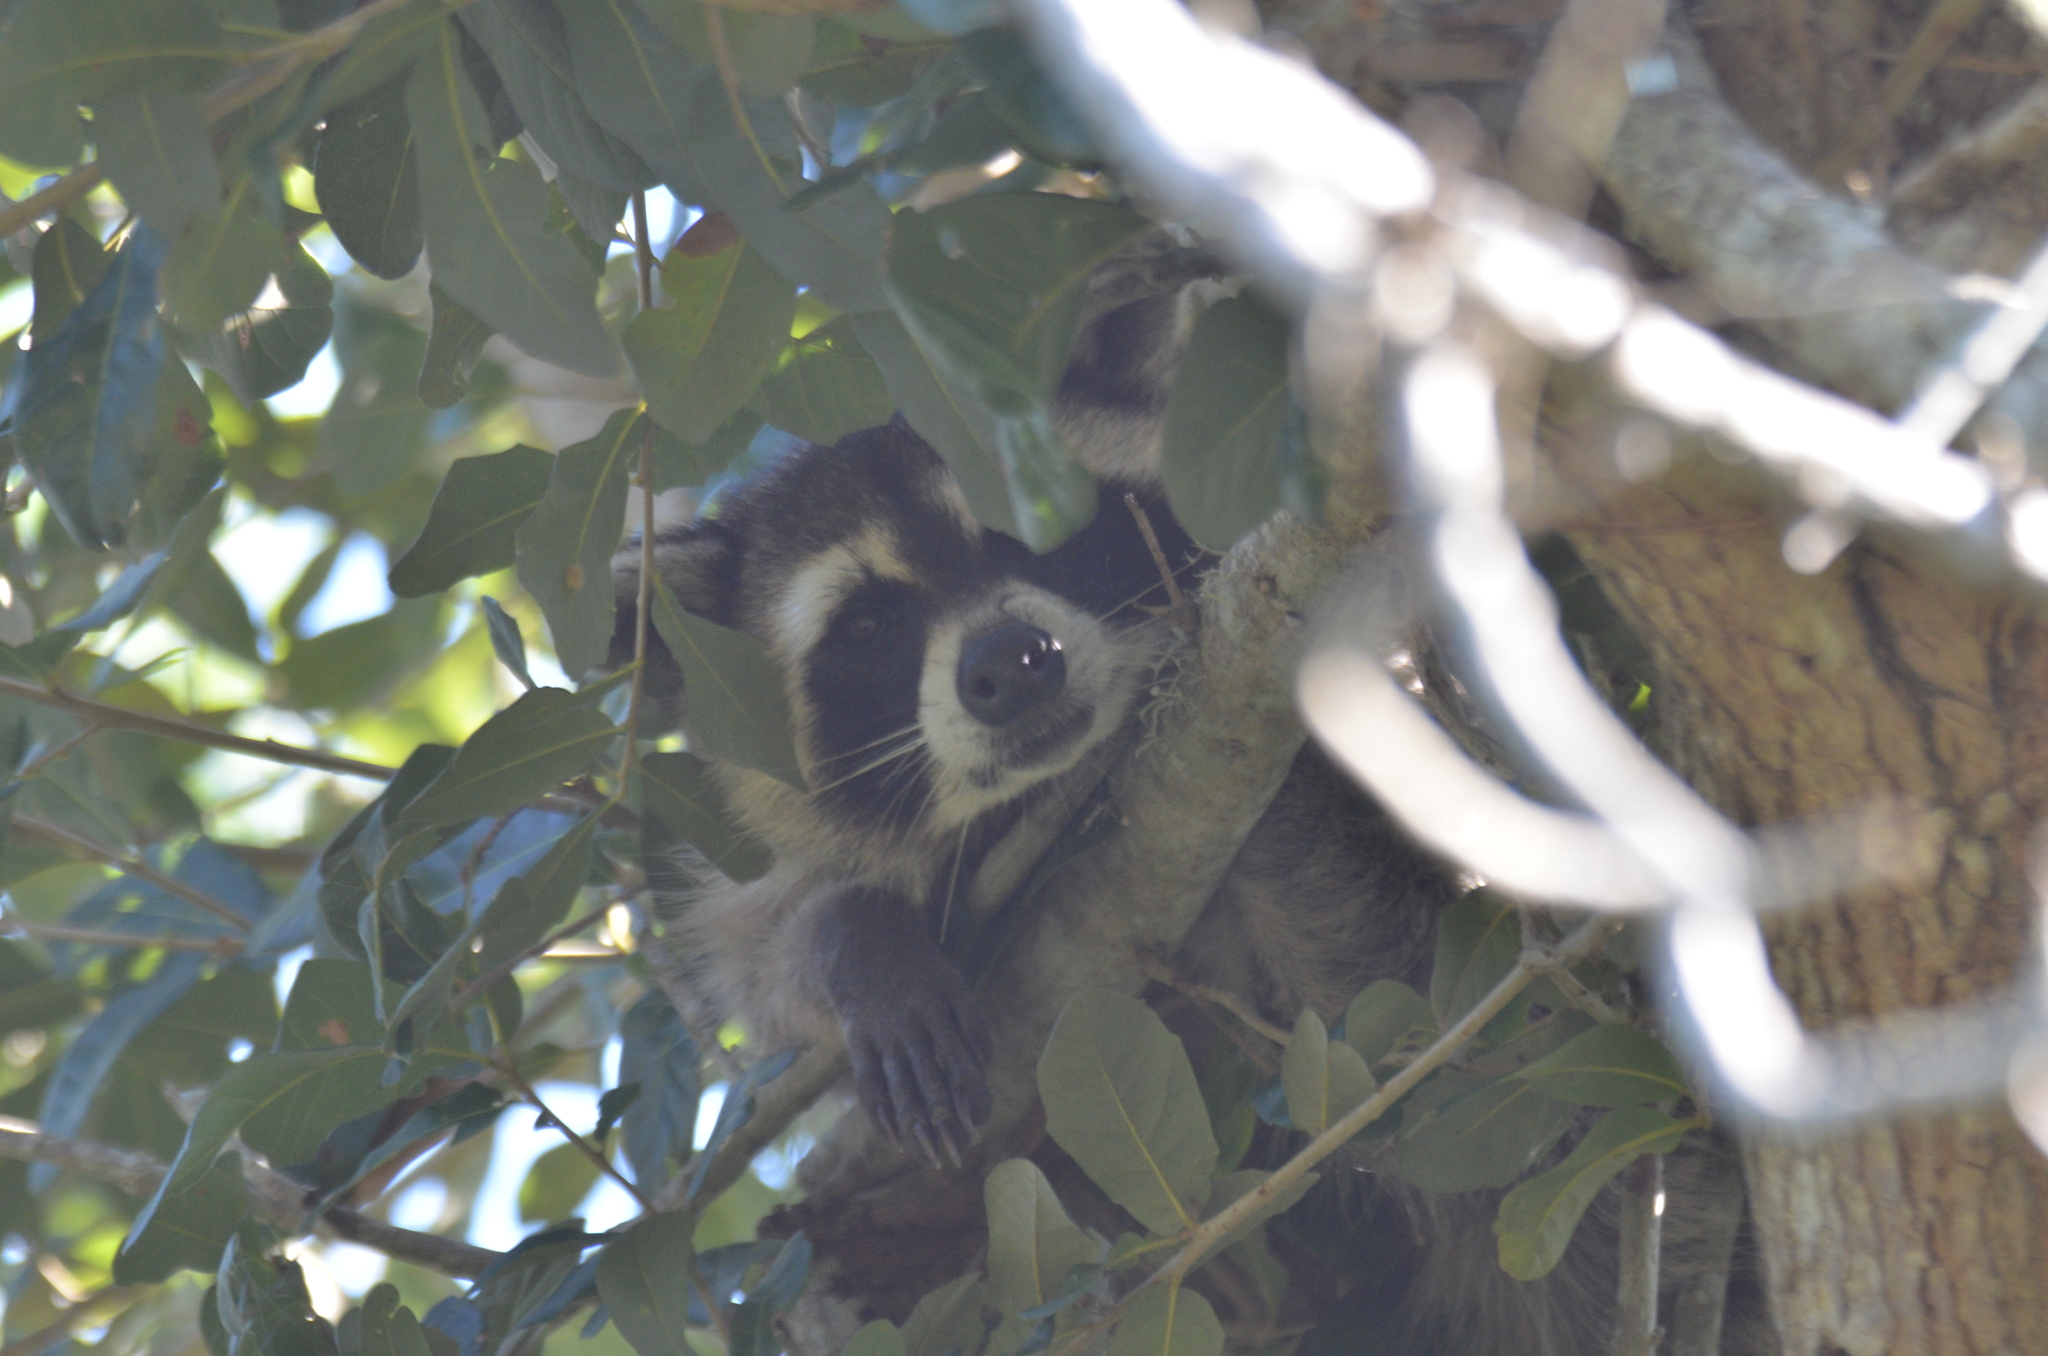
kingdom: Animalia
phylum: Chordata
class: Mammalia
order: Carnivora
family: Procyonidae
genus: Procyon
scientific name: Procyon lotor
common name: Raccoon
